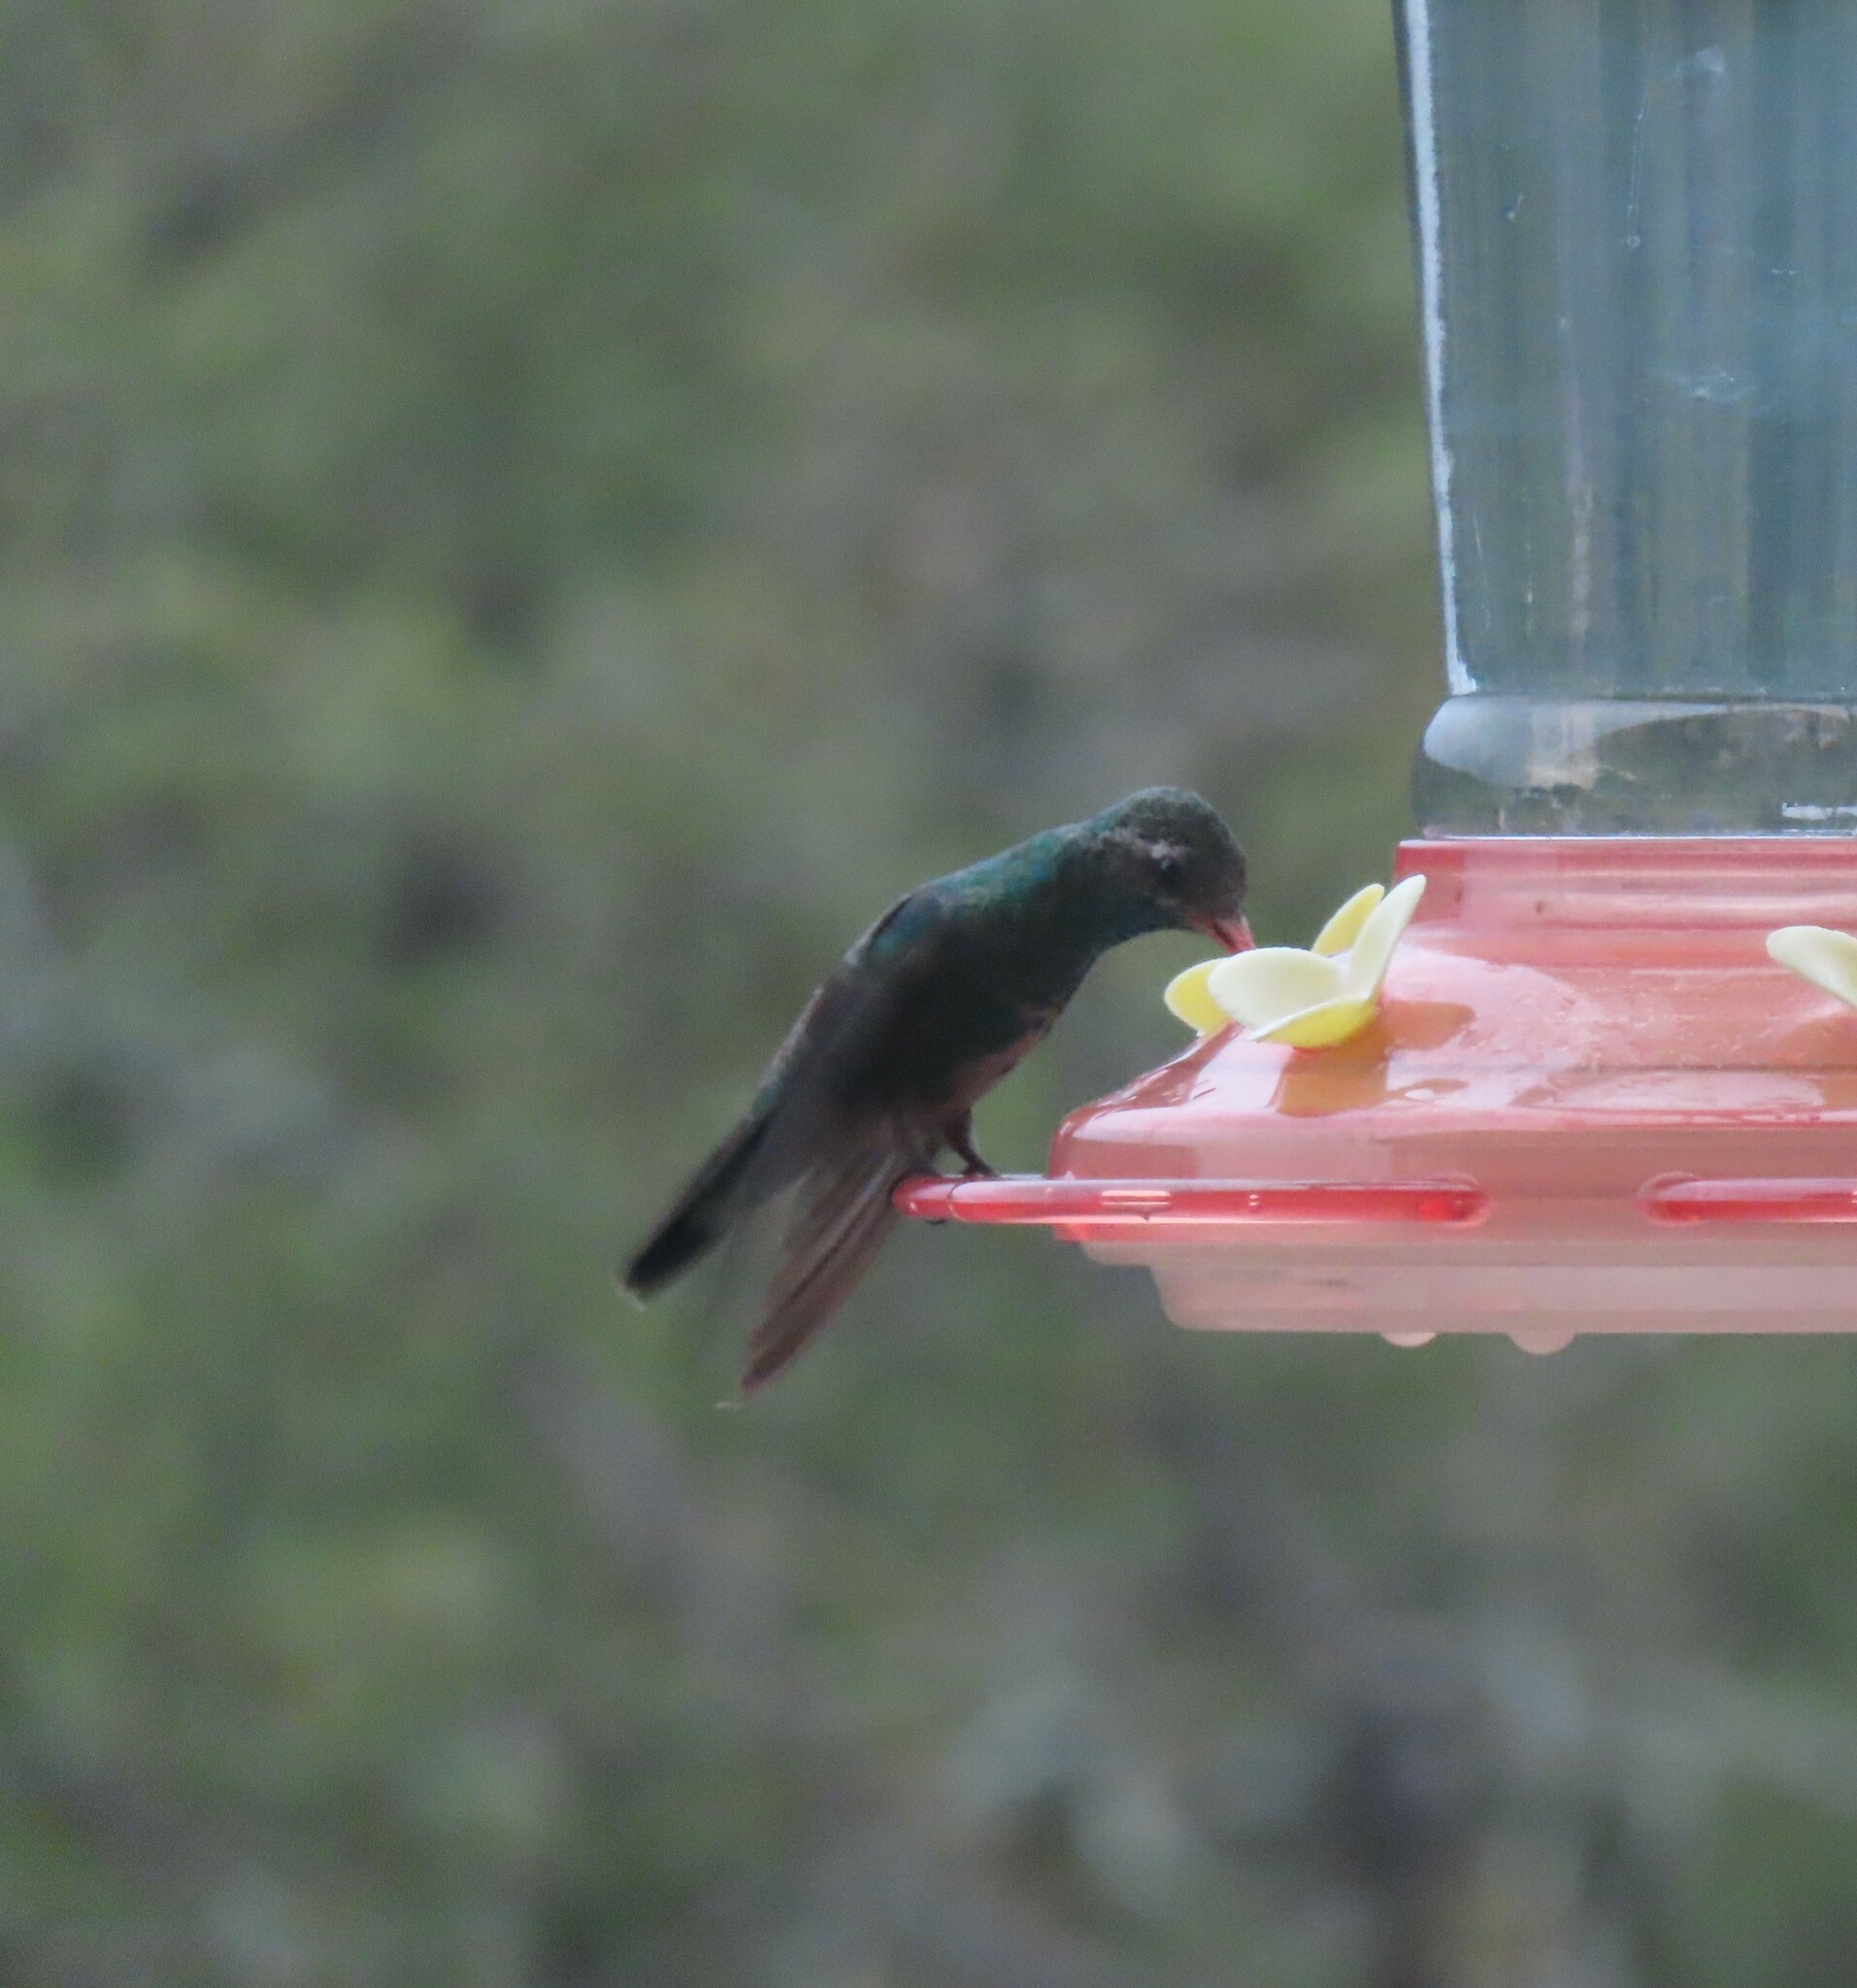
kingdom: Animalia
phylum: Chordata
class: Aves
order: Apodiformes
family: Trochilidae
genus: Cynanthus
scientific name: Cynanthus latirostris
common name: Broad-billed hummingbird
